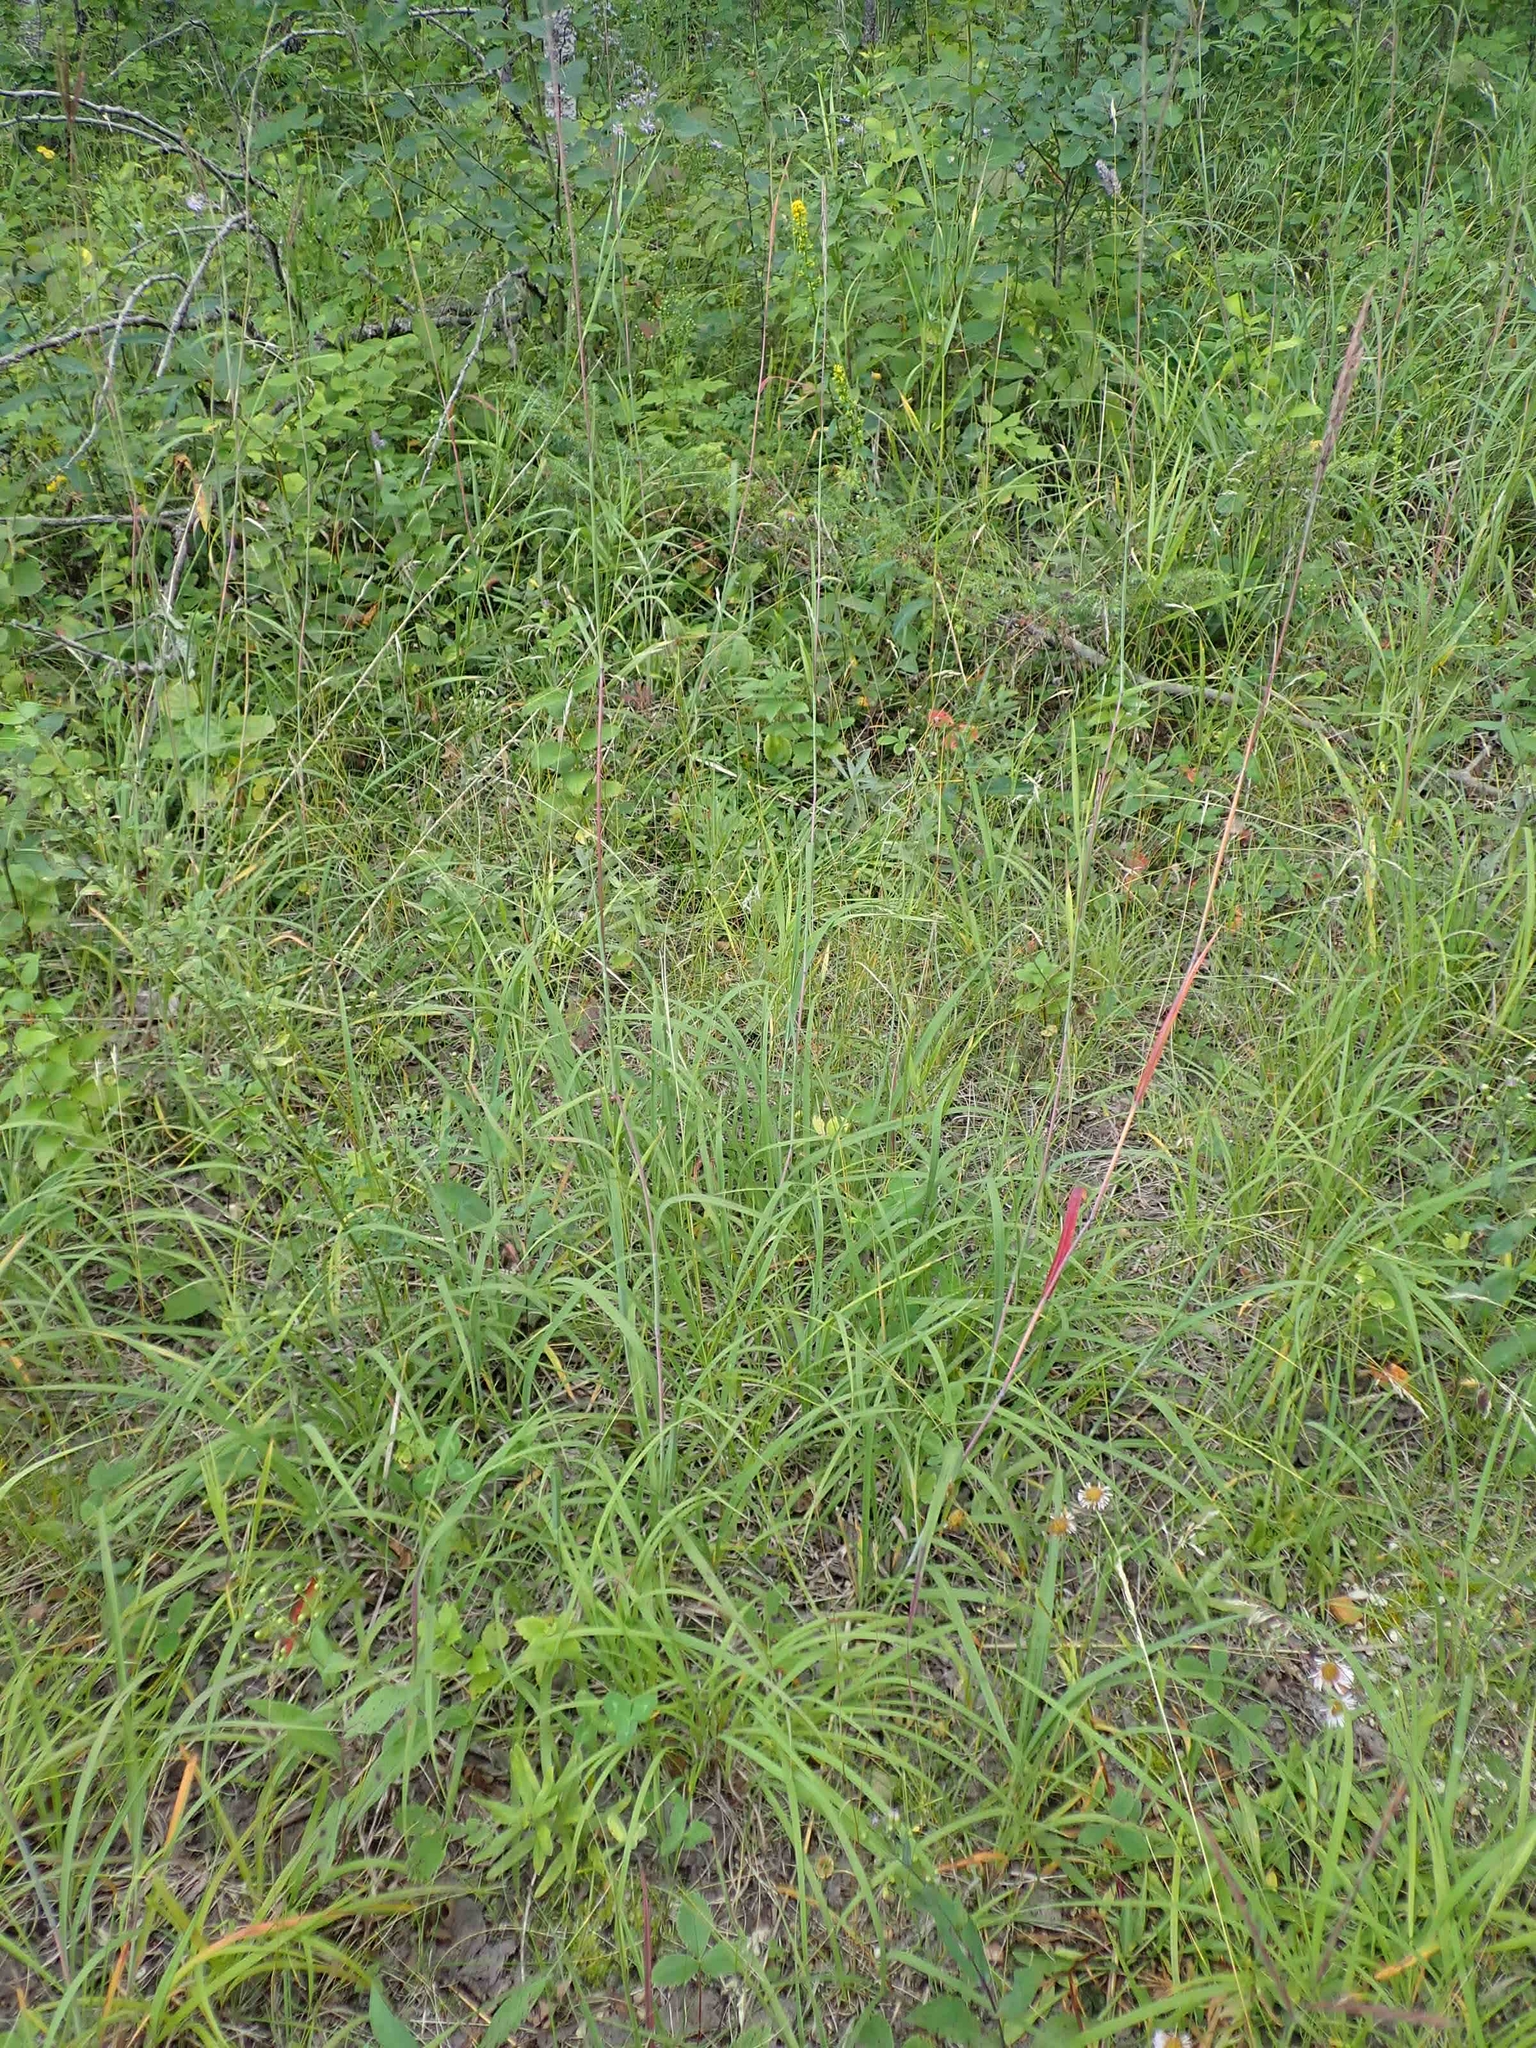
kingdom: Plantae
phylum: Tracheophyta
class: Liliopsida
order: Poales
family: Poaceae
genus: Andropogon
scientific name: Andropogon gerardi
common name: Big bluestem
